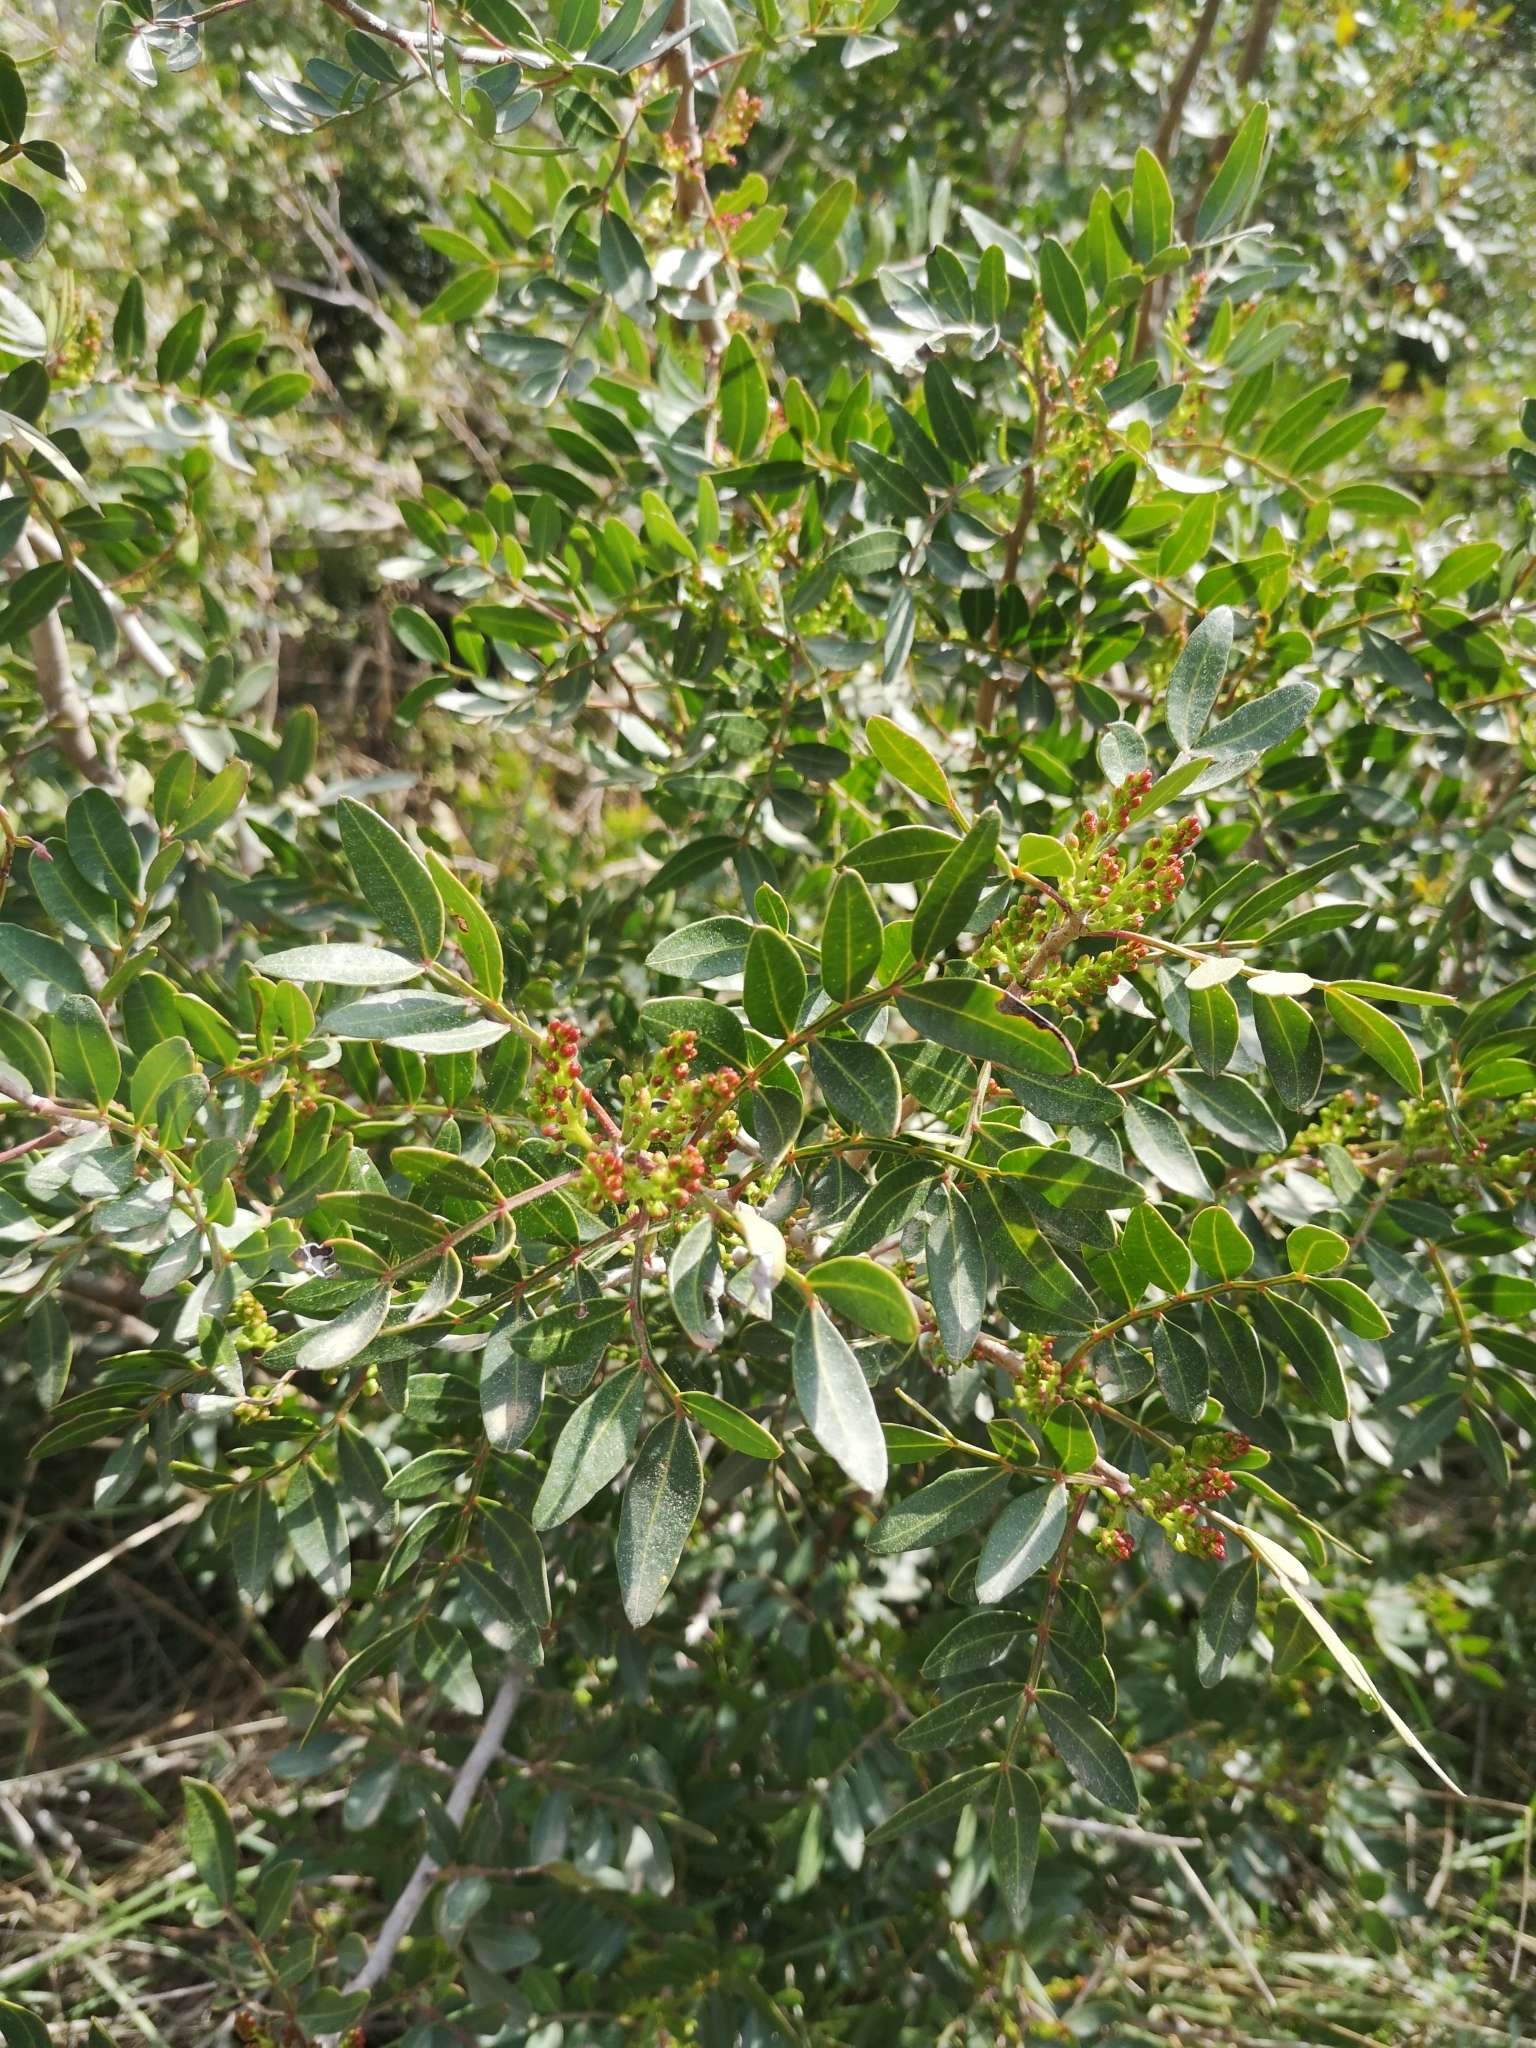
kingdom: Plantae
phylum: Tracheophyta
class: Magnoliopsida
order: Sapindales
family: Anacardiaceae
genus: Pistacia
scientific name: Pistacia lentiscus
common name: Lentisk
